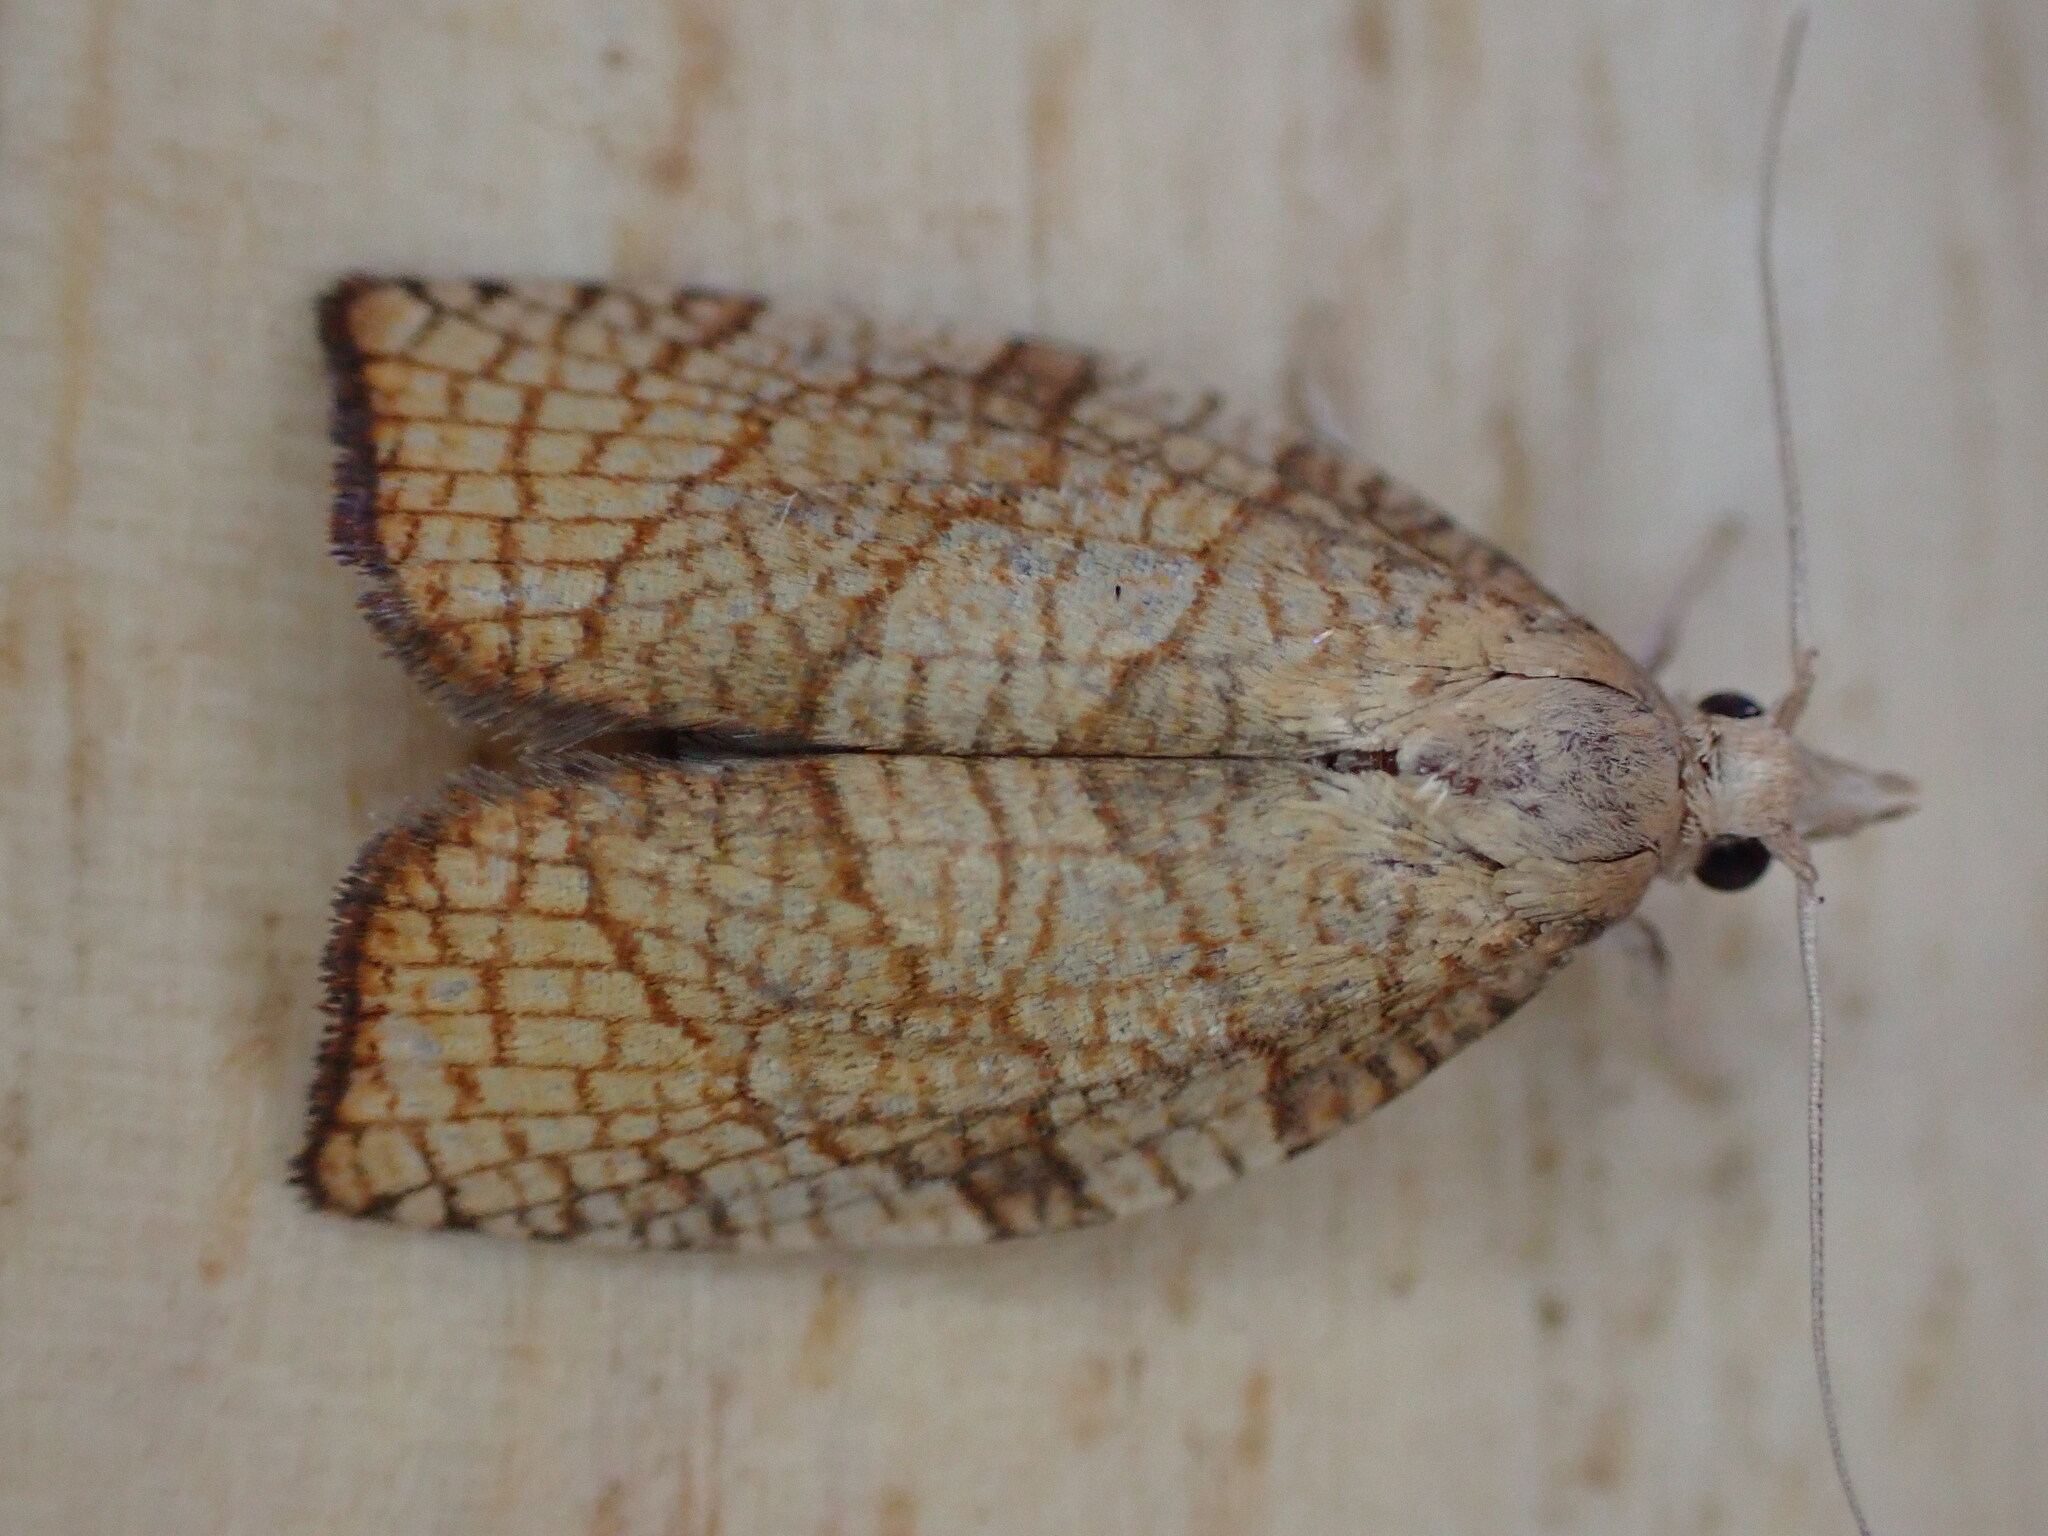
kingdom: Animalia
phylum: Arthropoda
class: Insecta
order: Lepidoptera
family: Tortricidae
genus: Pandemis
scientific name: Pandemis corylana
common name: Chequered fruit-tree tortrix
